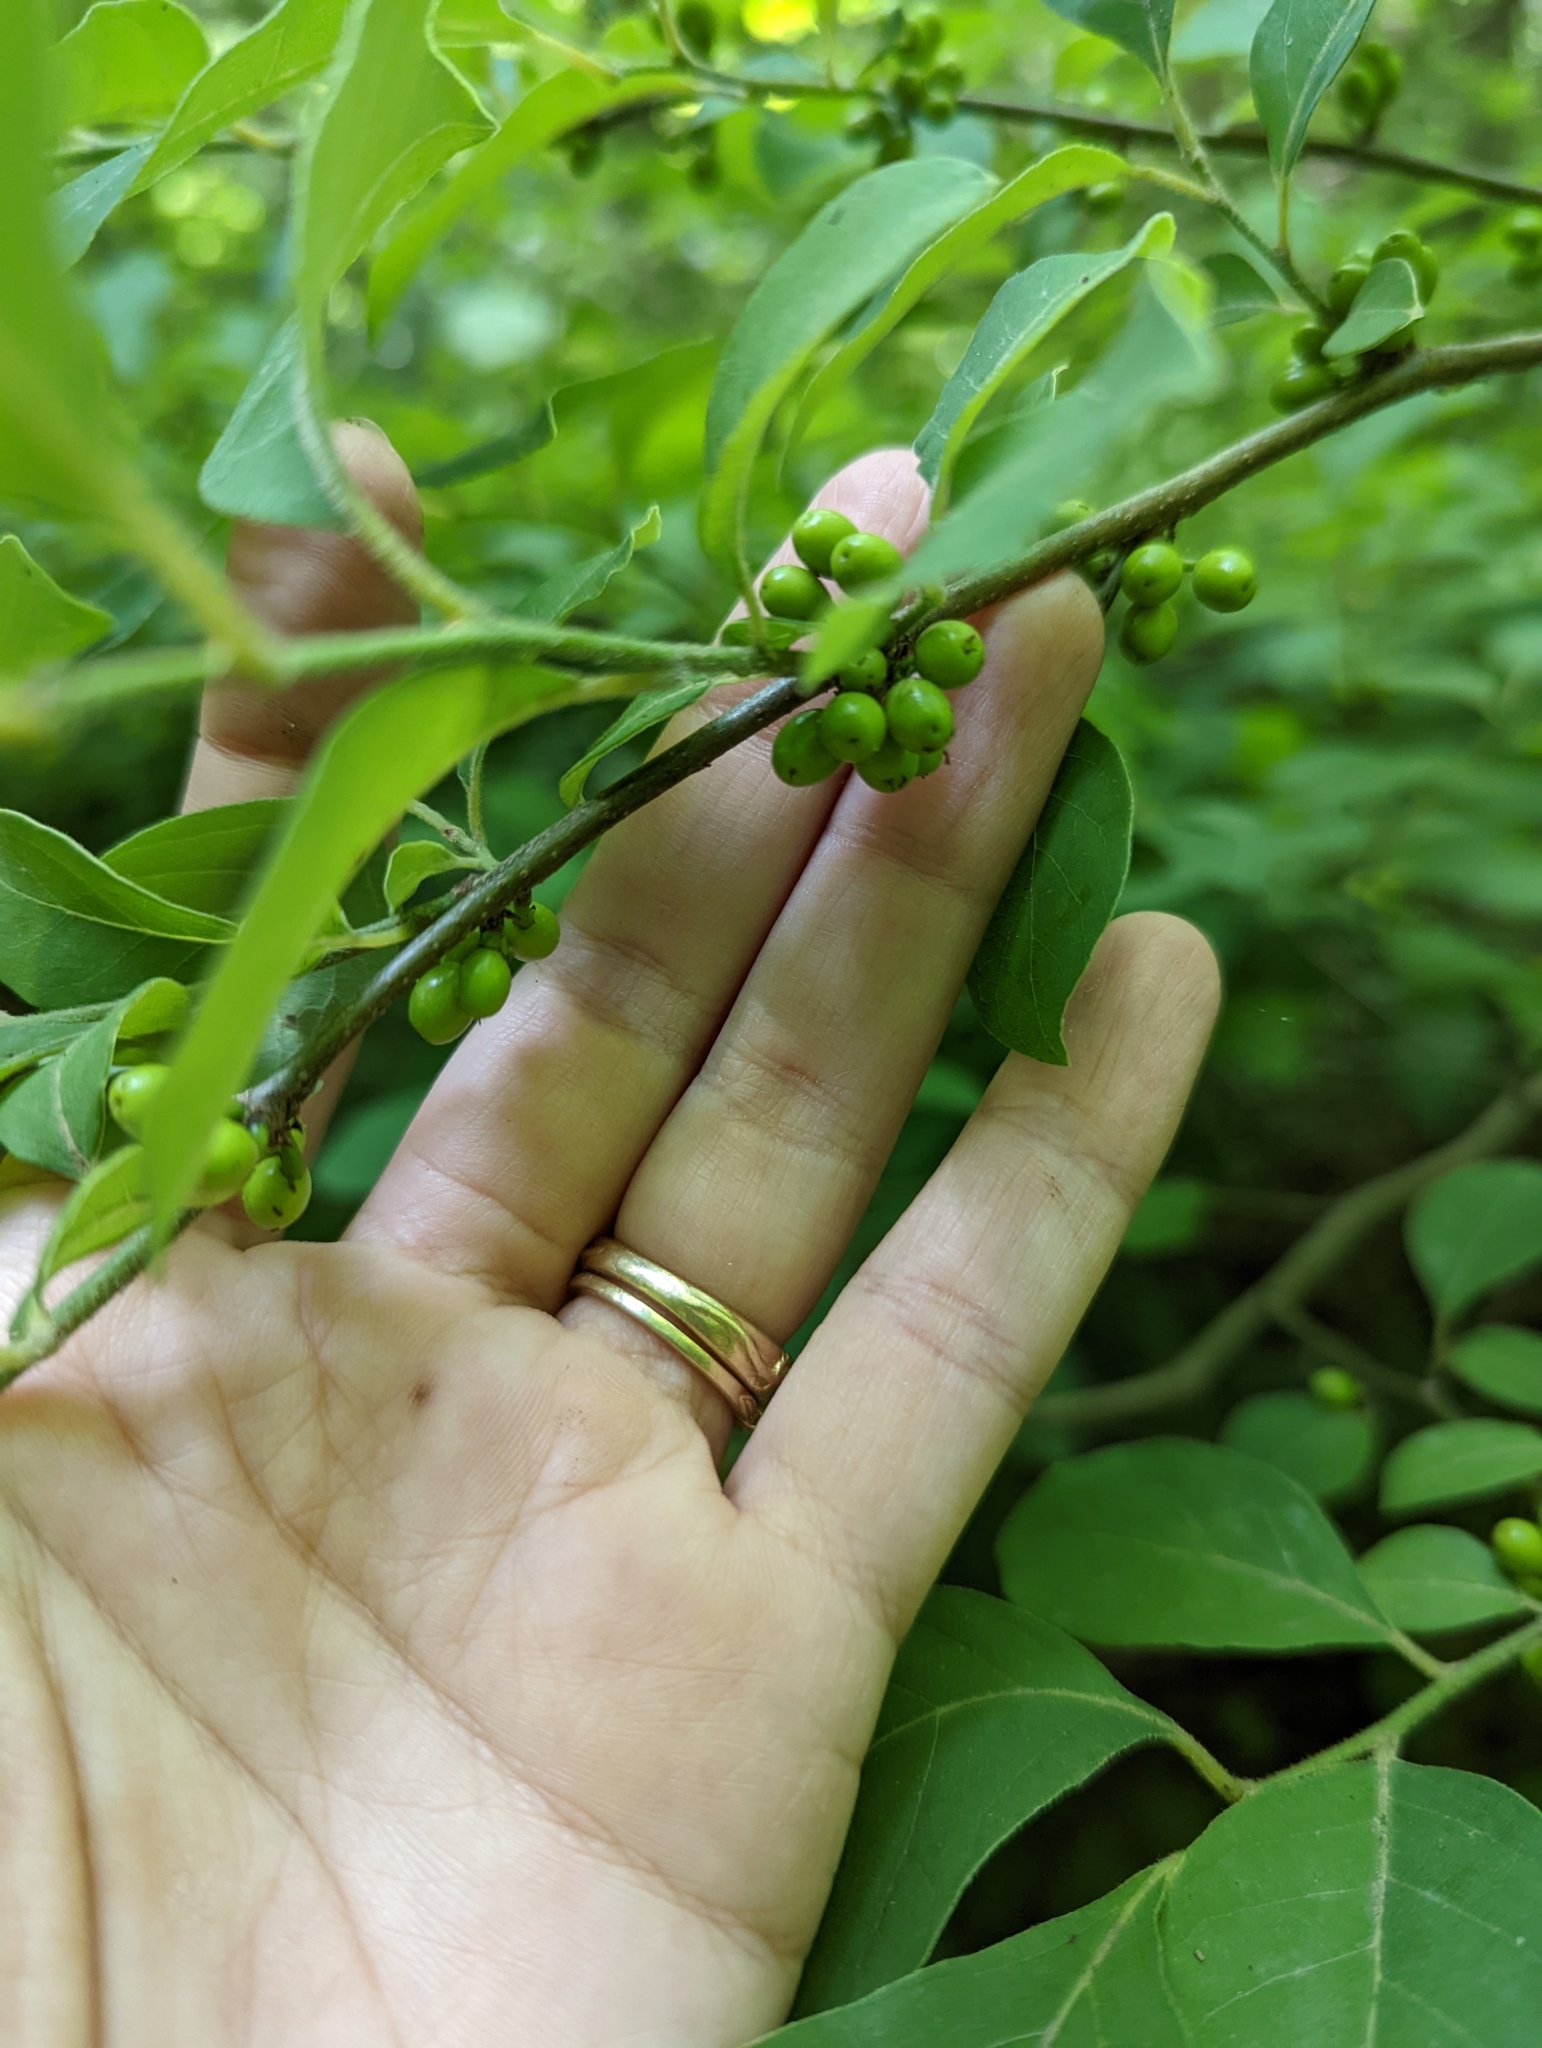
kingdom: Plantae
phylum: Tracheophyta
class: Magnoliopsida
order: Laurales
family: Lauraceae
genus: Lindera
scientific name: Lindera benzoin
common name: Spicebush
